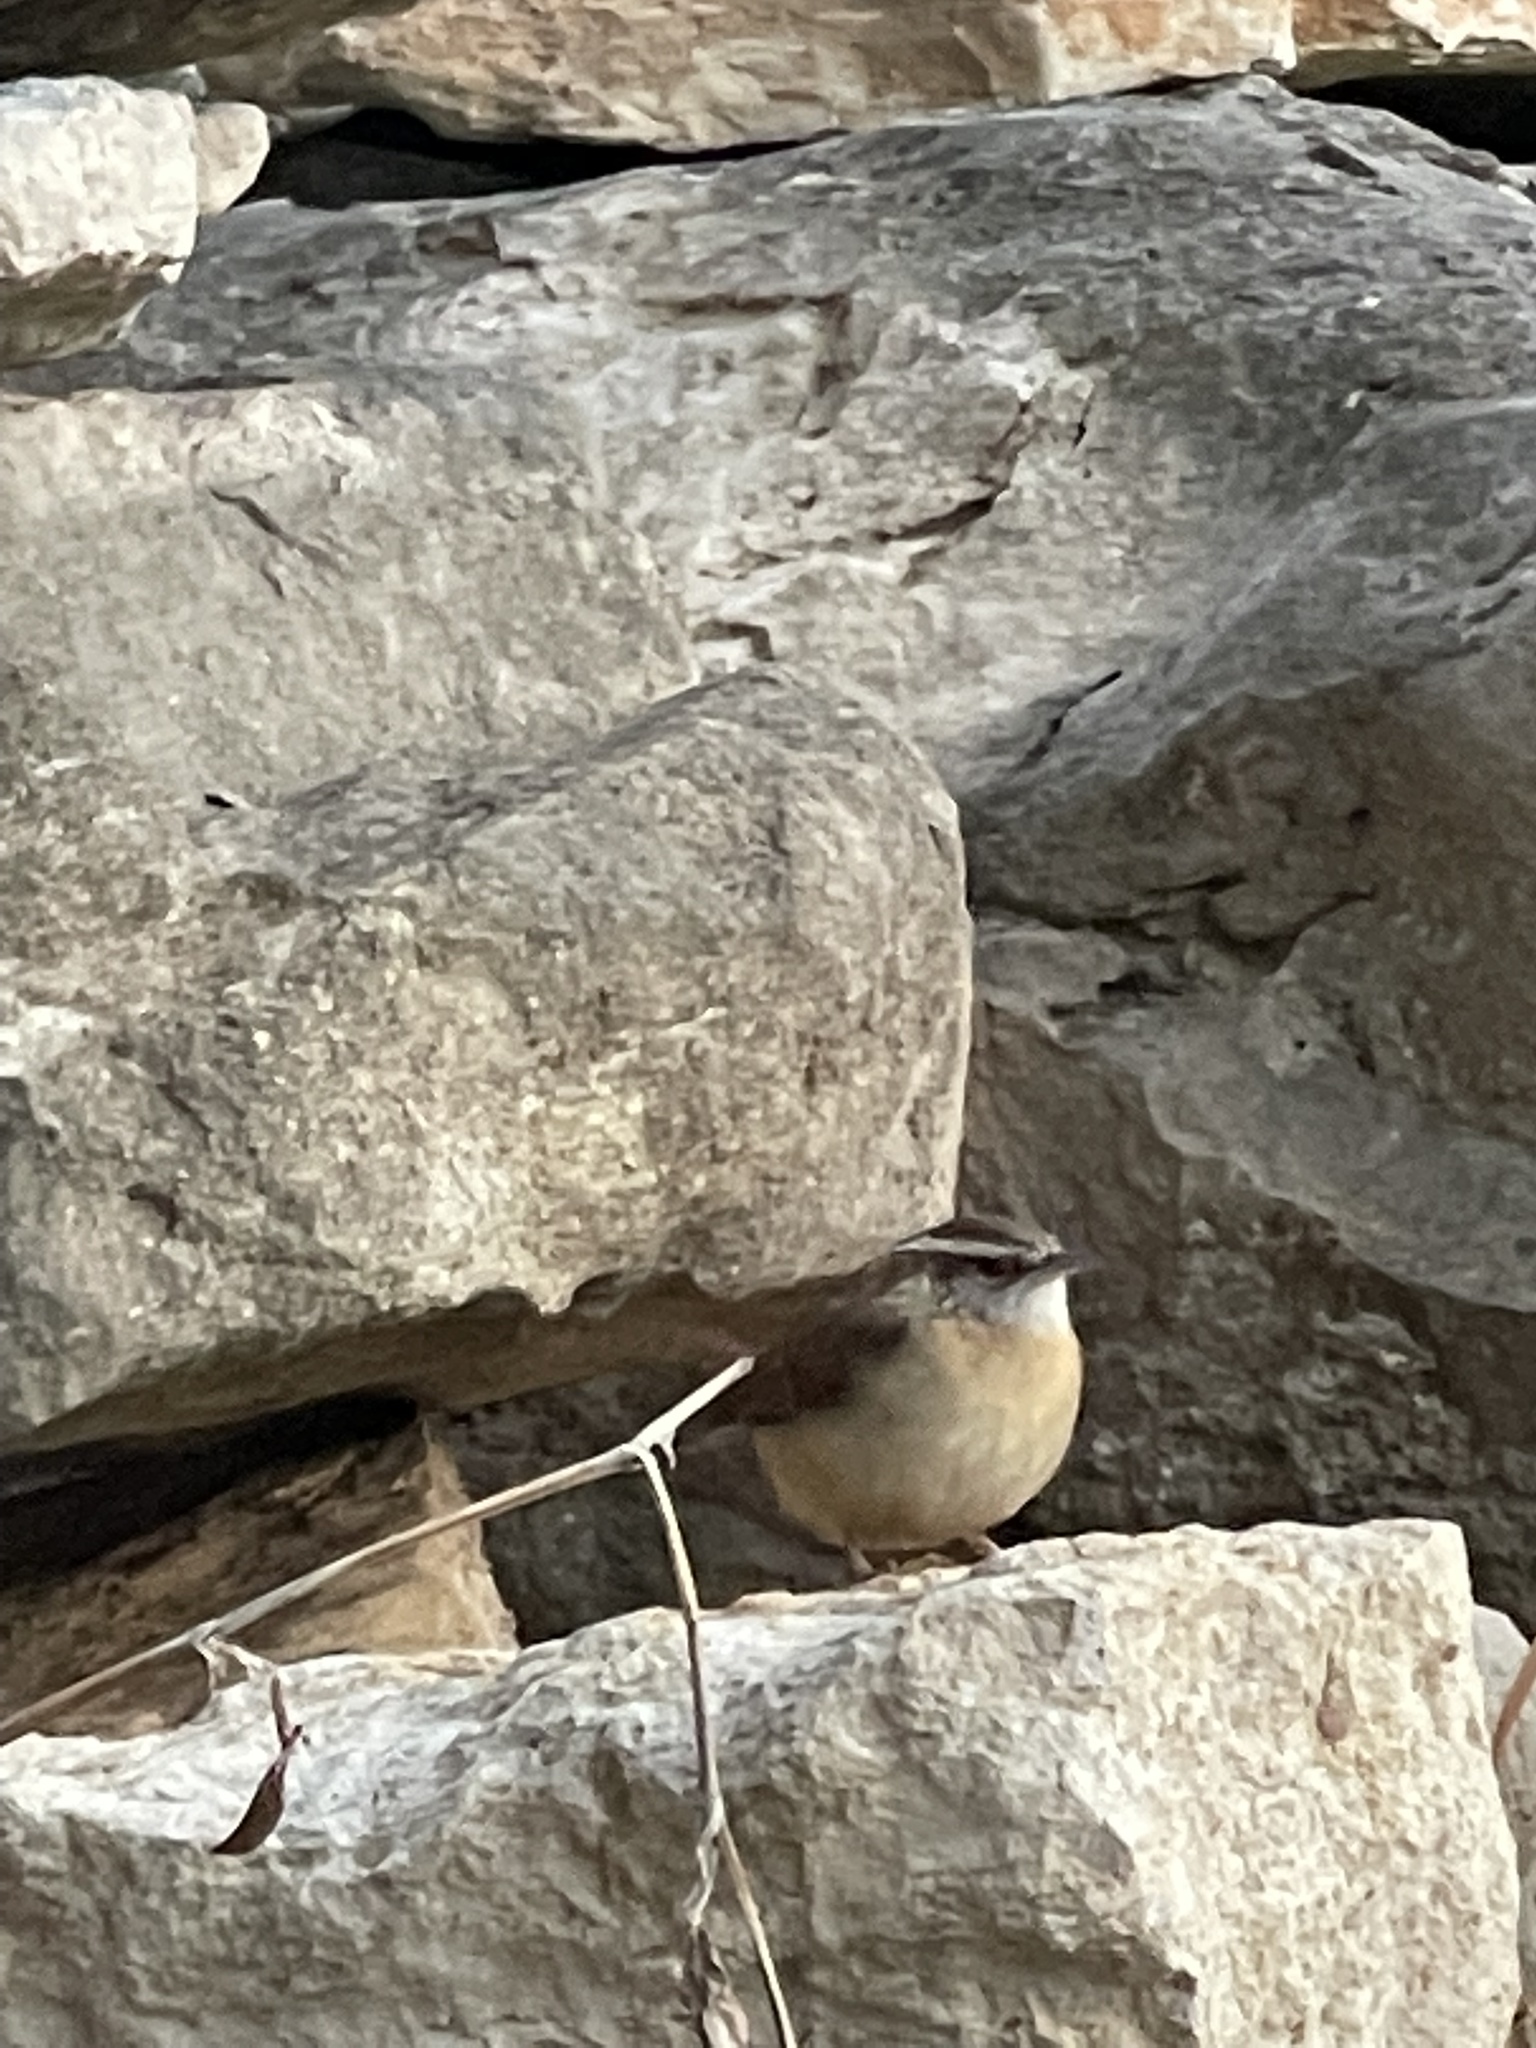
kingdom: Animalia
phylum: Chordata
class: Aves
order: Passeriformes
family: Troglodytidae
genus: Thryothorus
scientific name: Thryothorus ludovicianus
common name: Carolina wren
